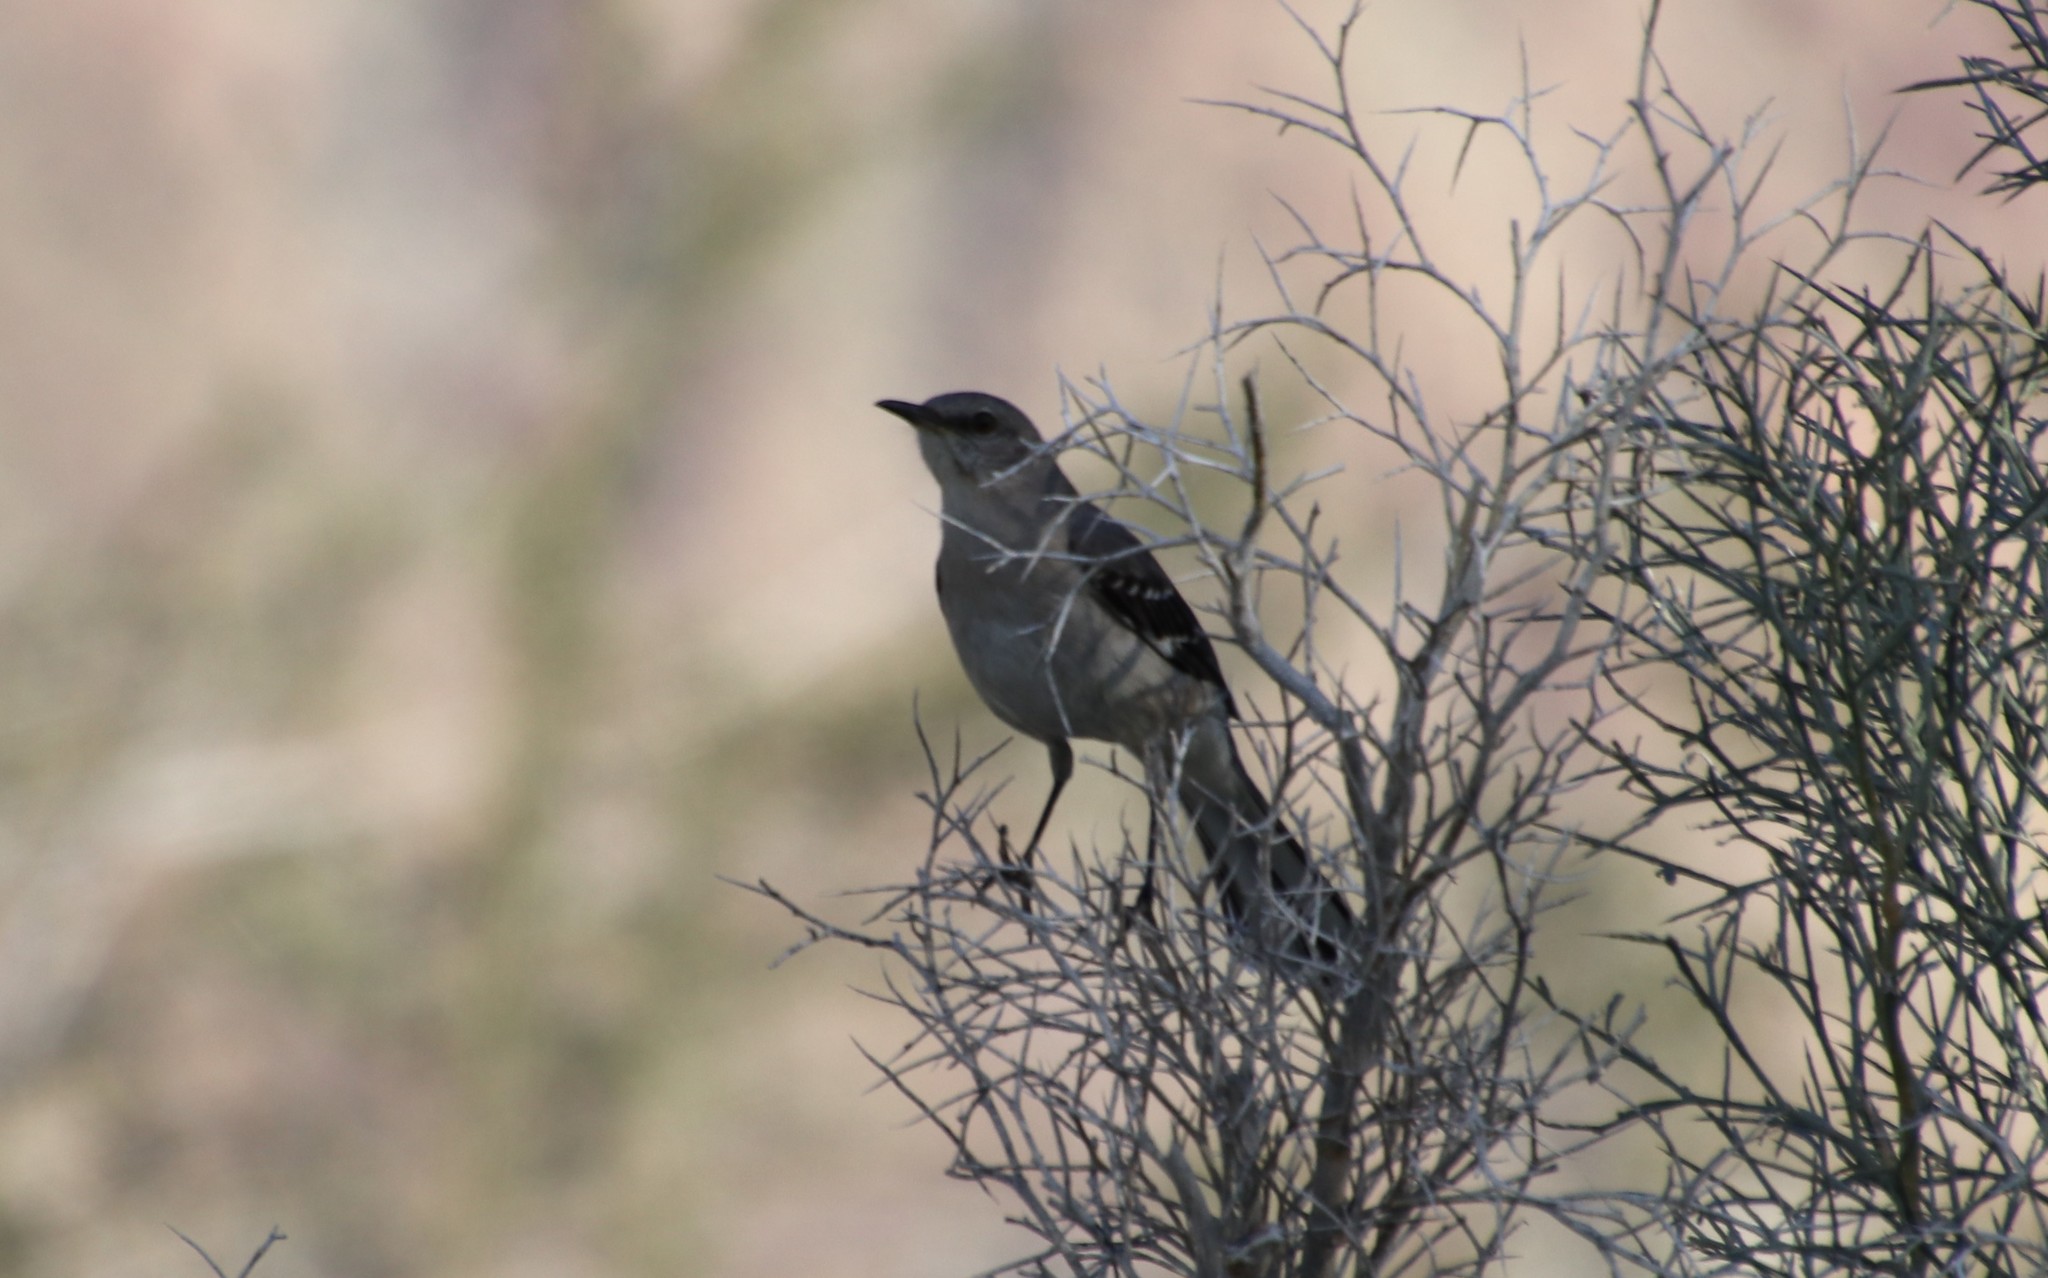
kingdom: Animalia
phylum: Chordata
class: Aves
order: Passeriformes
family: Mimidae
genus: Mimus
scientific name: Mimus polyglottos
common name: Northern mockingbird
